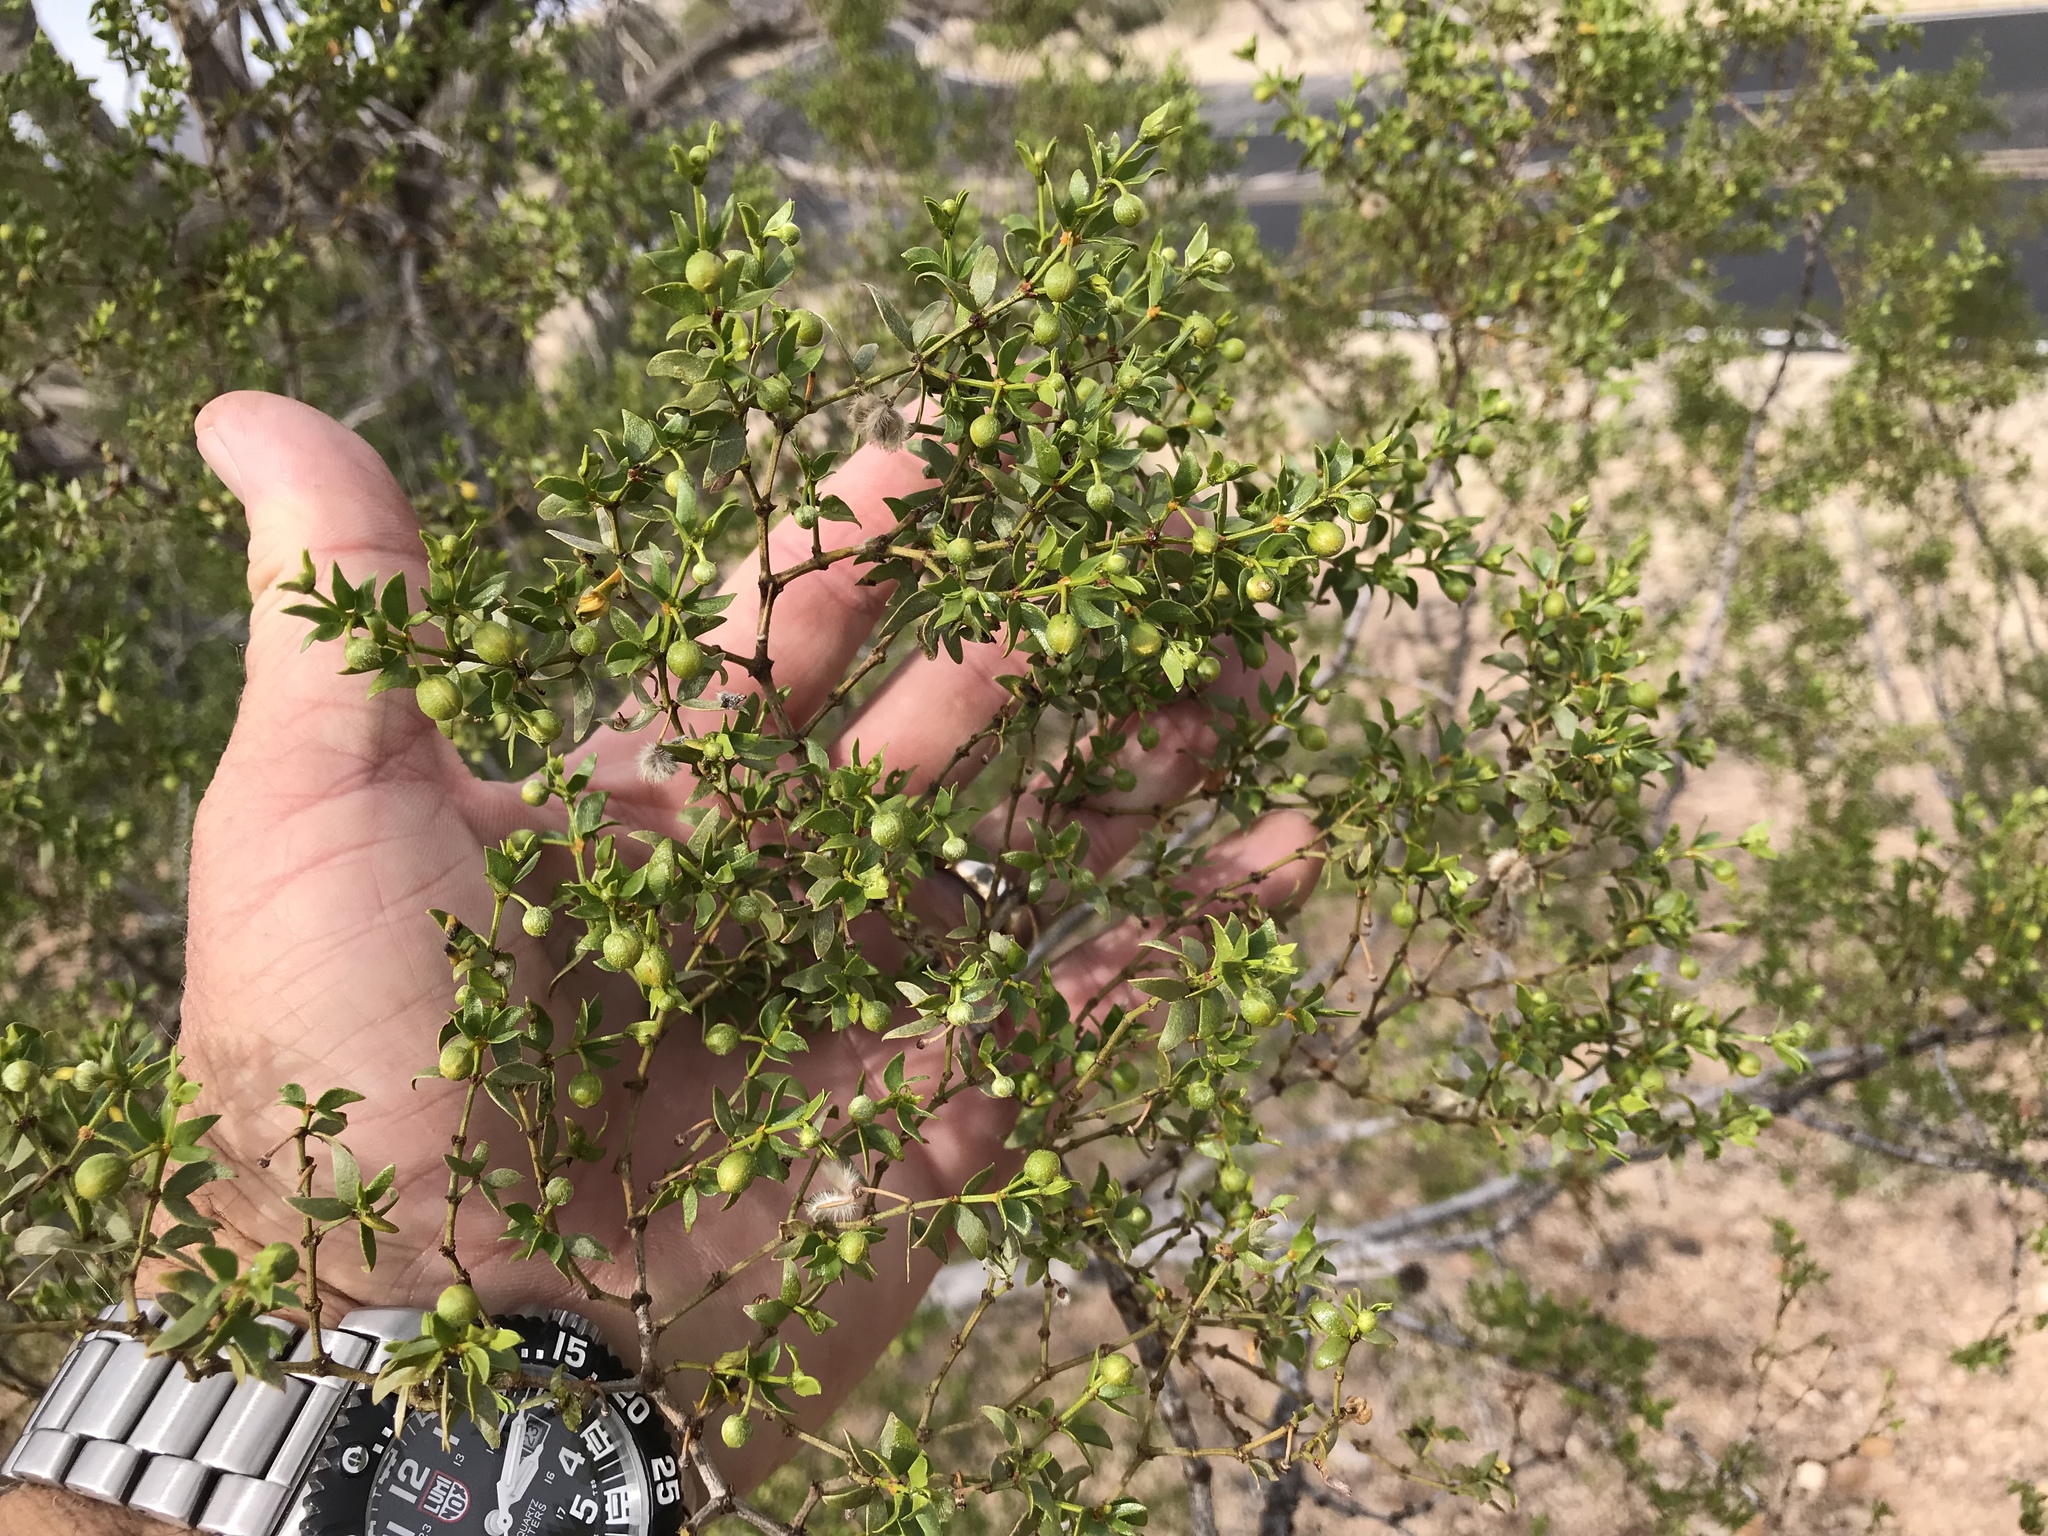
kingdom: Plantae
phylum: Tracheophyta
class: Magnoliopsida
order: Zygophyllales
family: Zygophyllaceae
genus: Larrea
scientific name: Larrea tridentata
